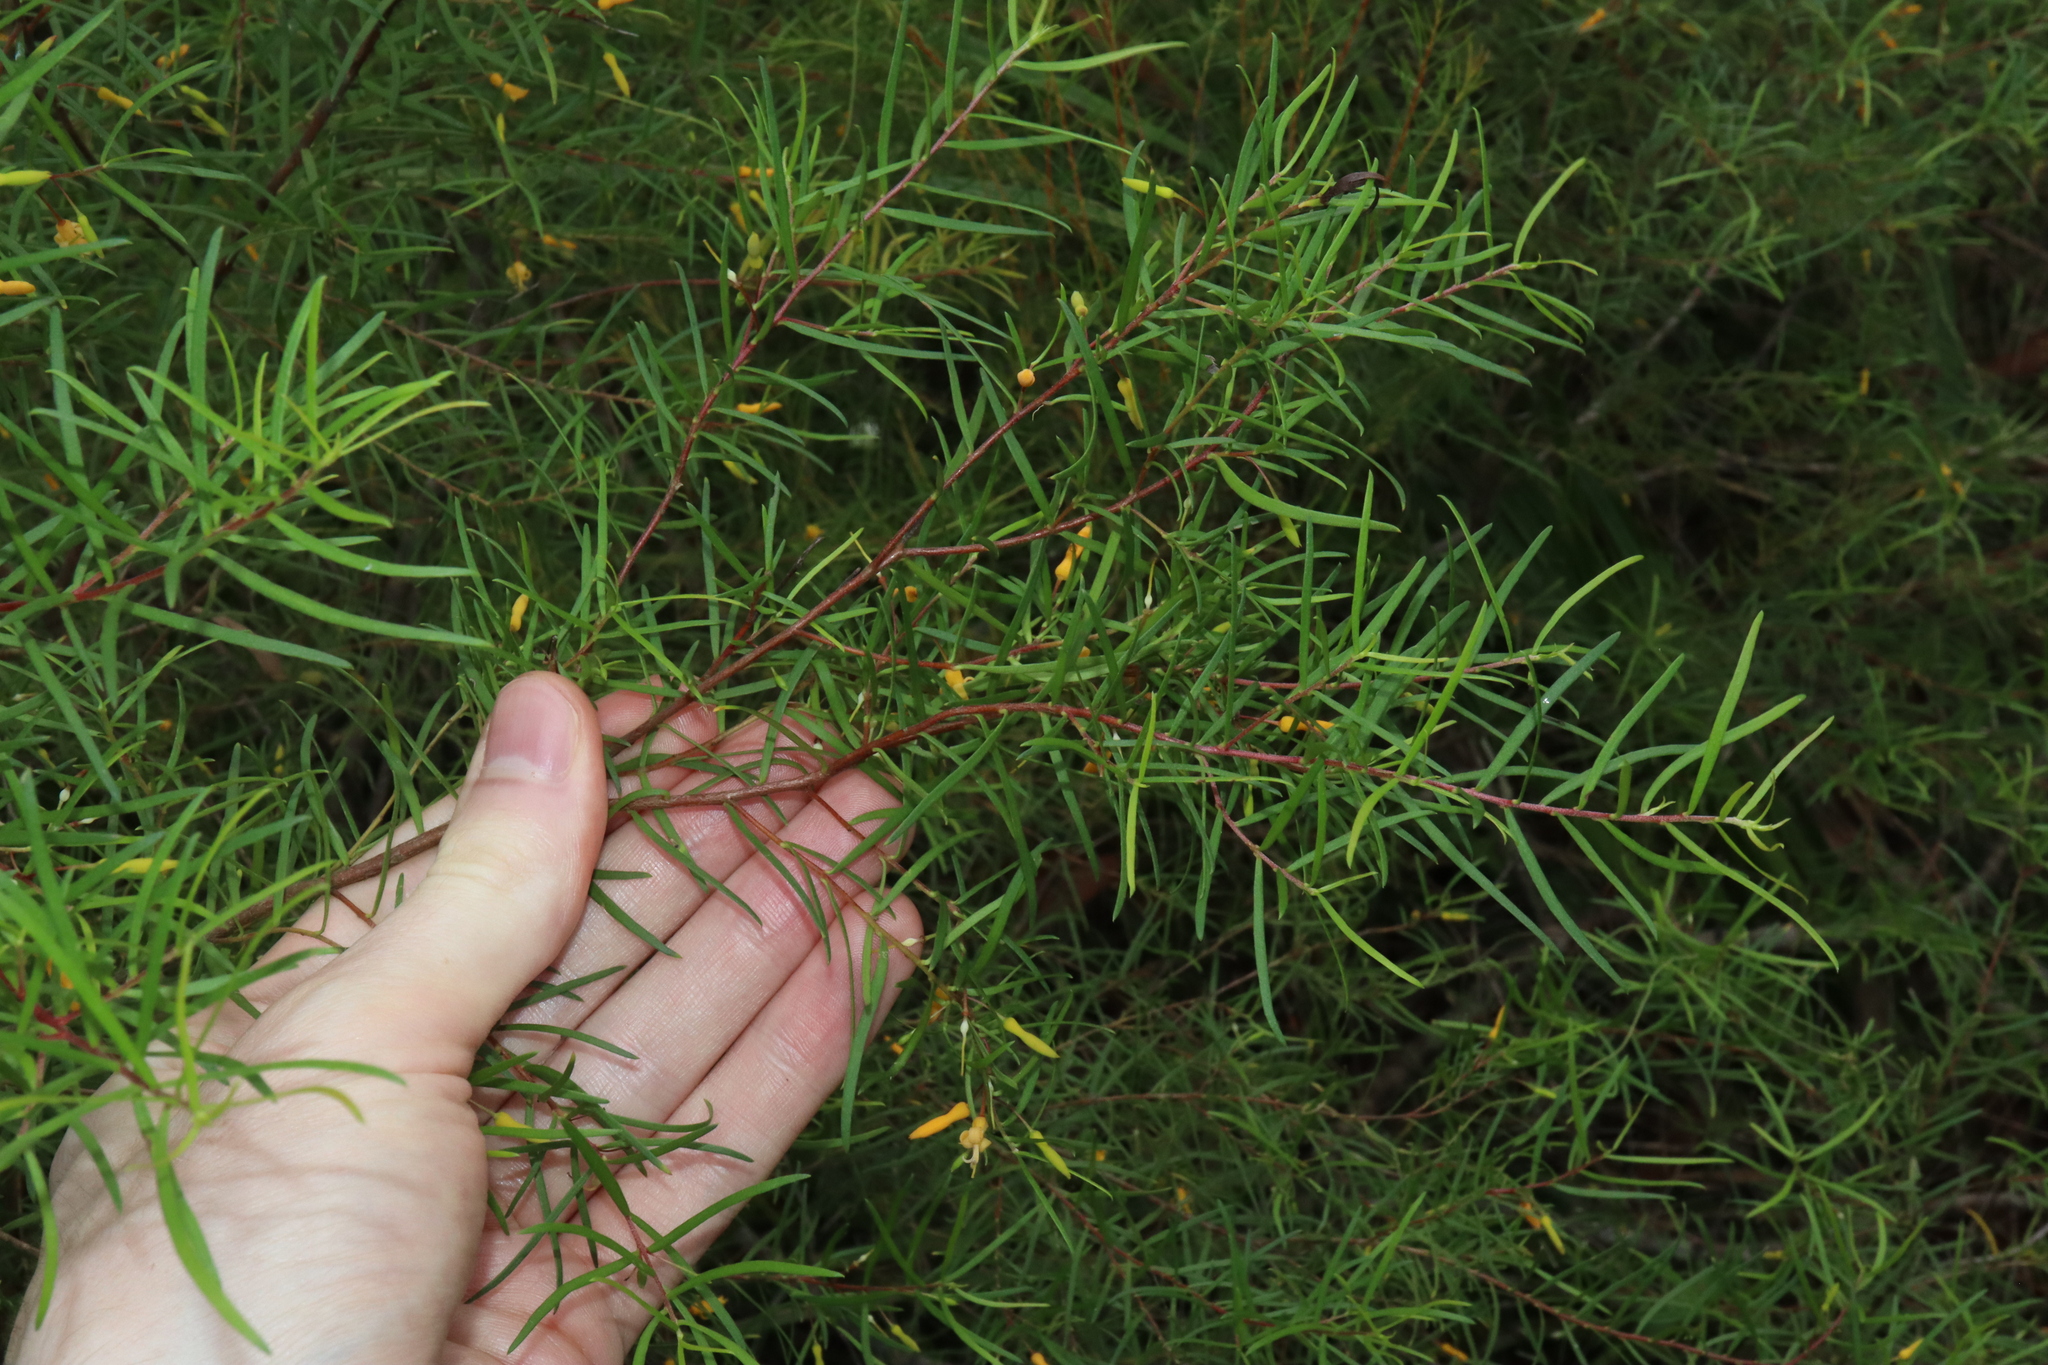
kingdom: Plantae
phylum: Tracheophyta
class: Magnoliopsida
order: Proteales
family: Proteaceae
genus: Persoonia
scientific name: Persoonia nutans
